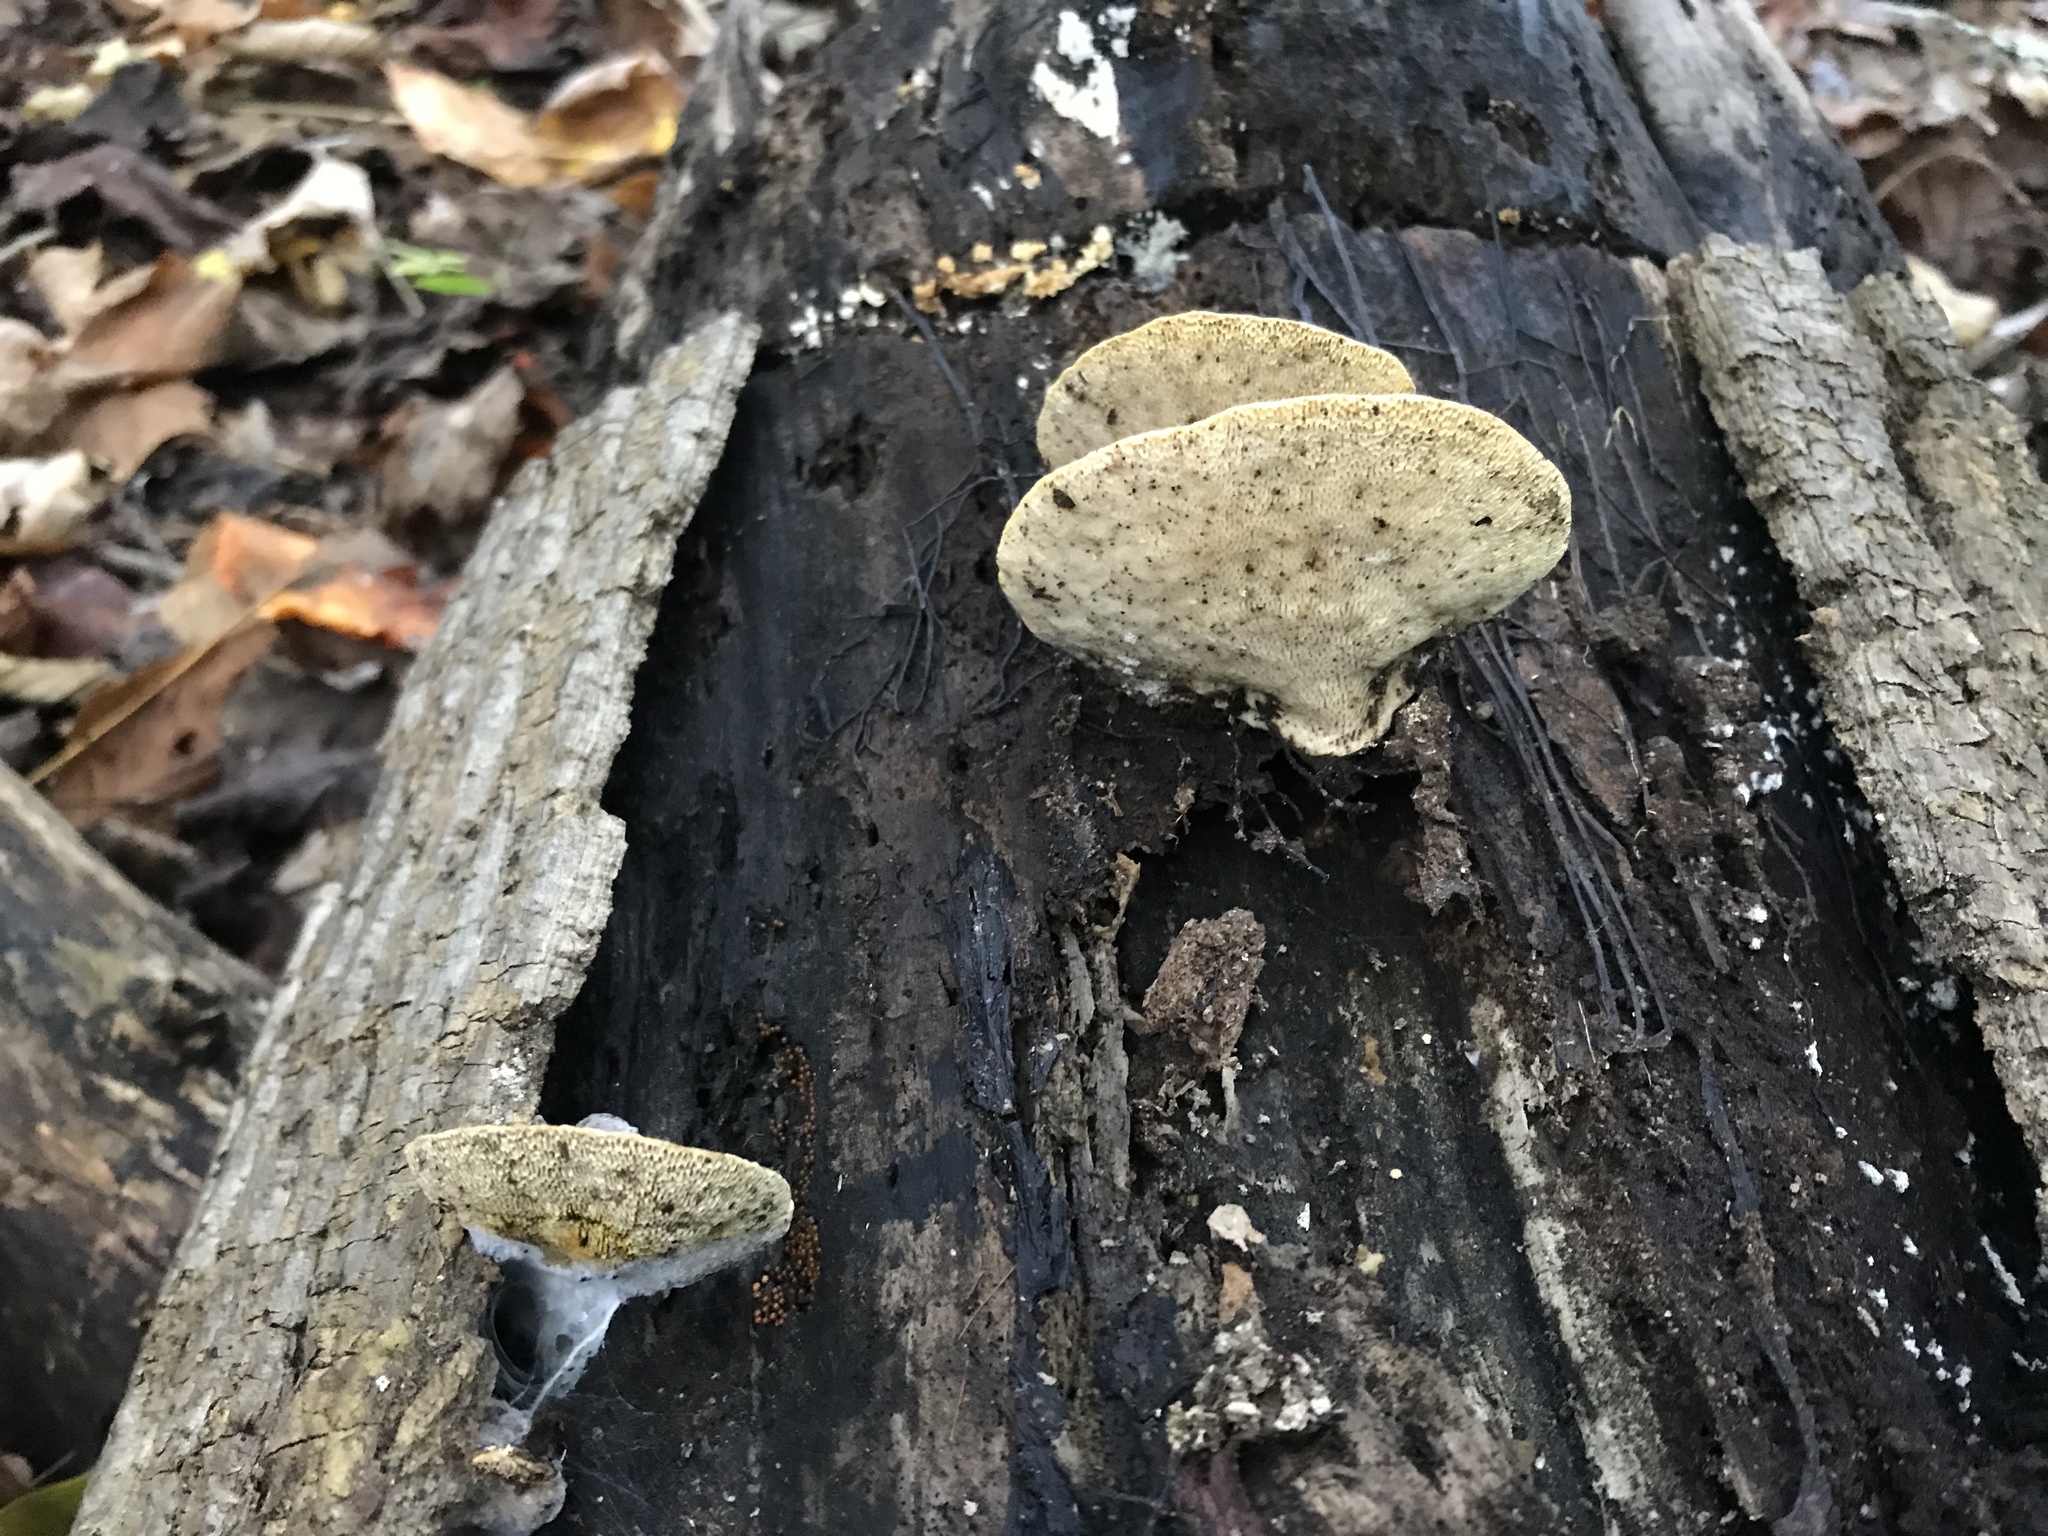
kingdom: Fungi
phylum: Basidiomycota
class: Agaricomycetes
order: Polyporales
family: Polyporaceae
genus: Trametes
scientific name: Trametes
